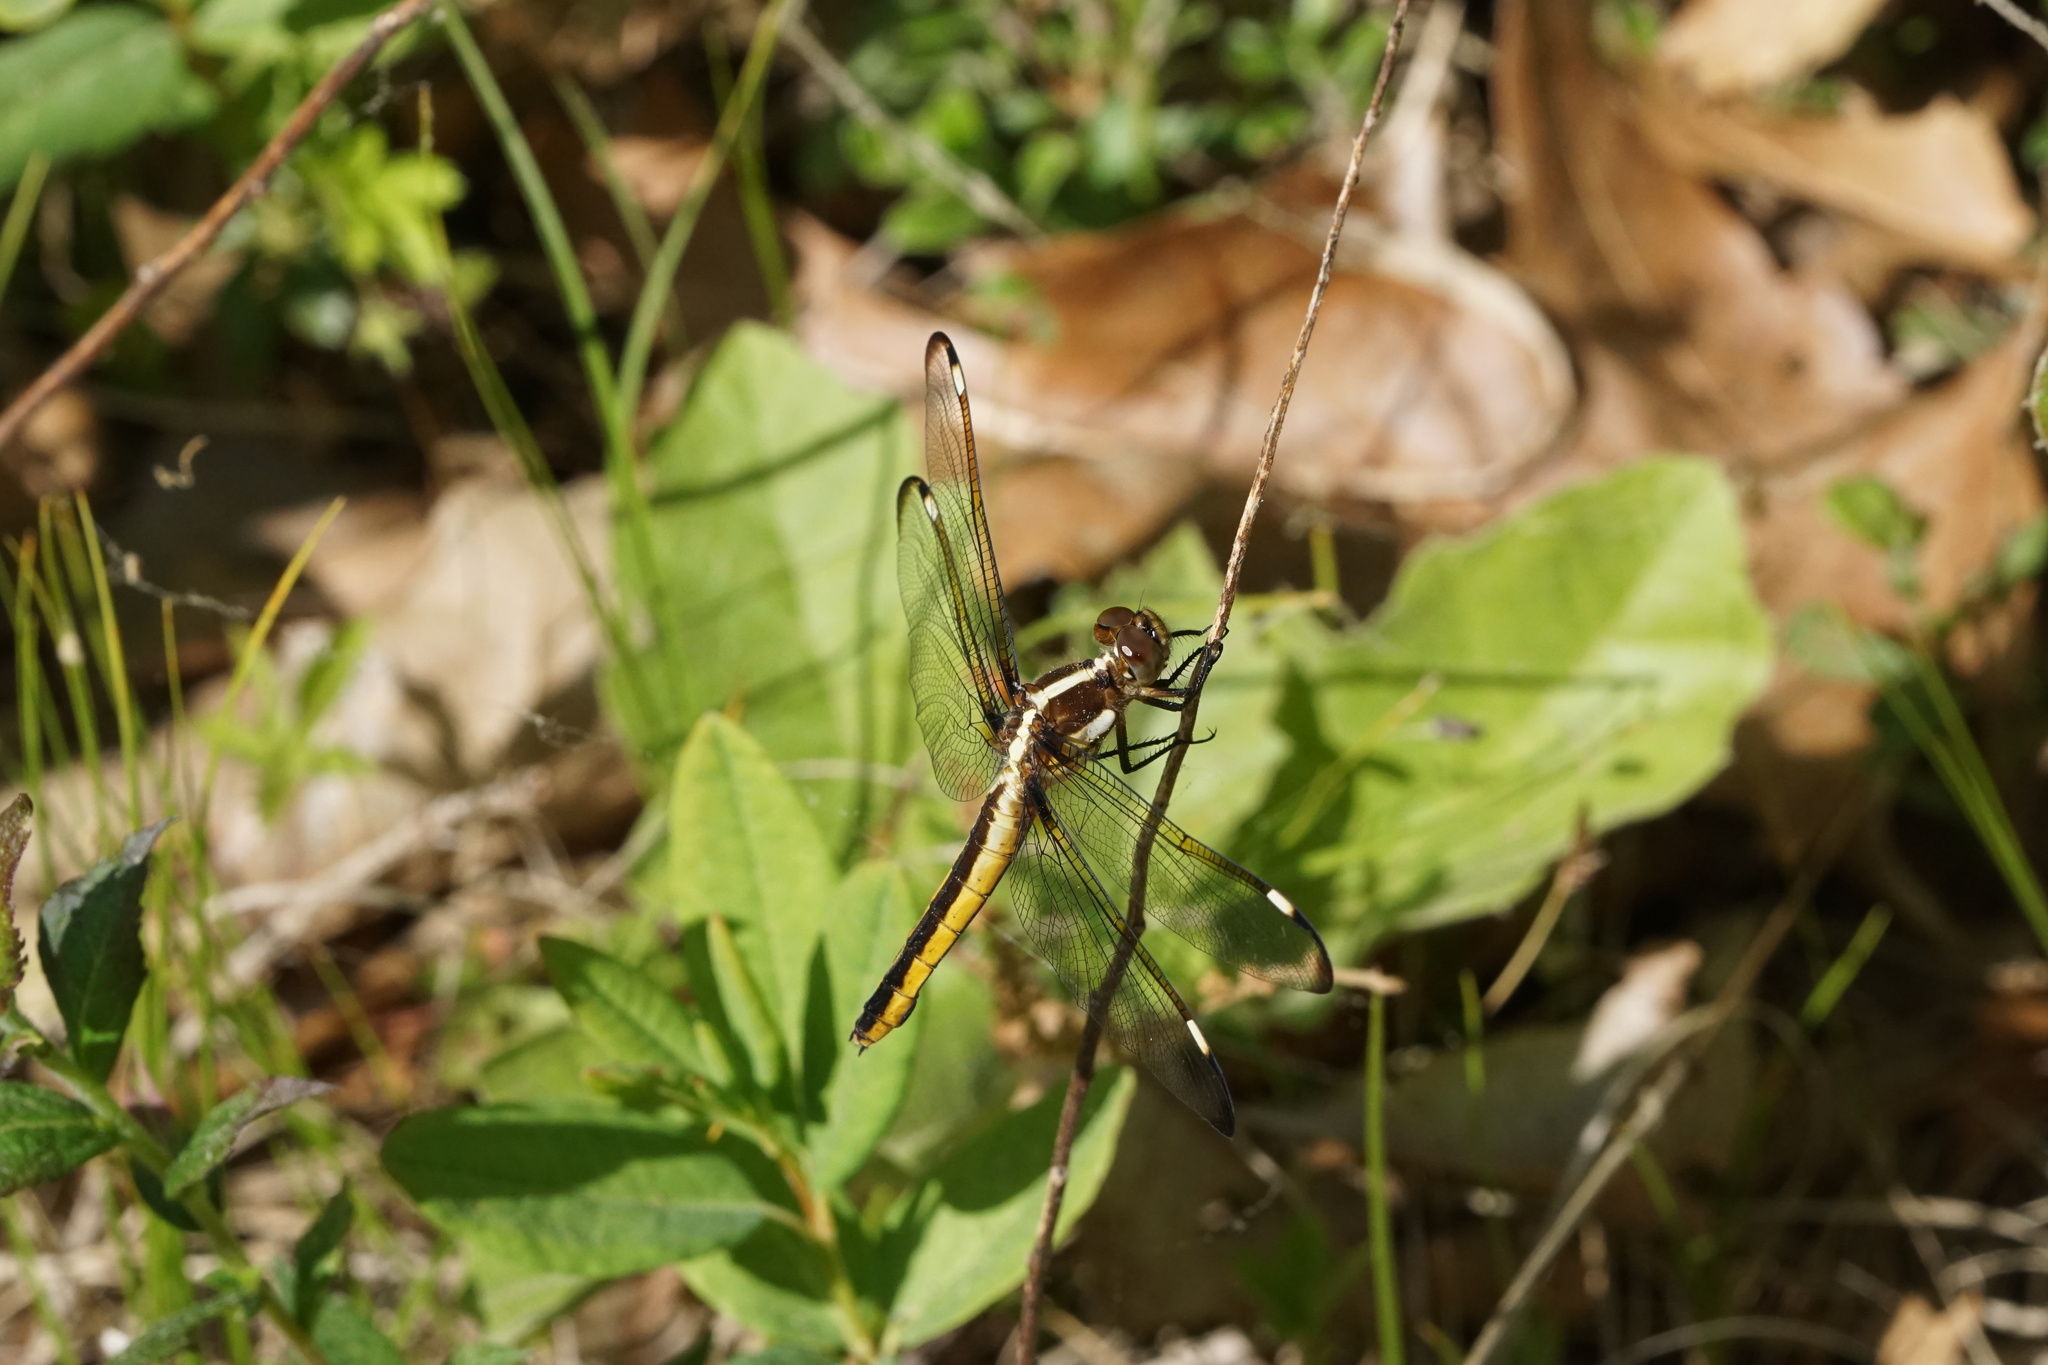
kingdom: Animalia
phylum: Arthropoda
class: Insecta
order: Odonata
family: Libellulidae
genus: Libellula
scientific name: Libellula cyanea
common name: Spangled skimmer
